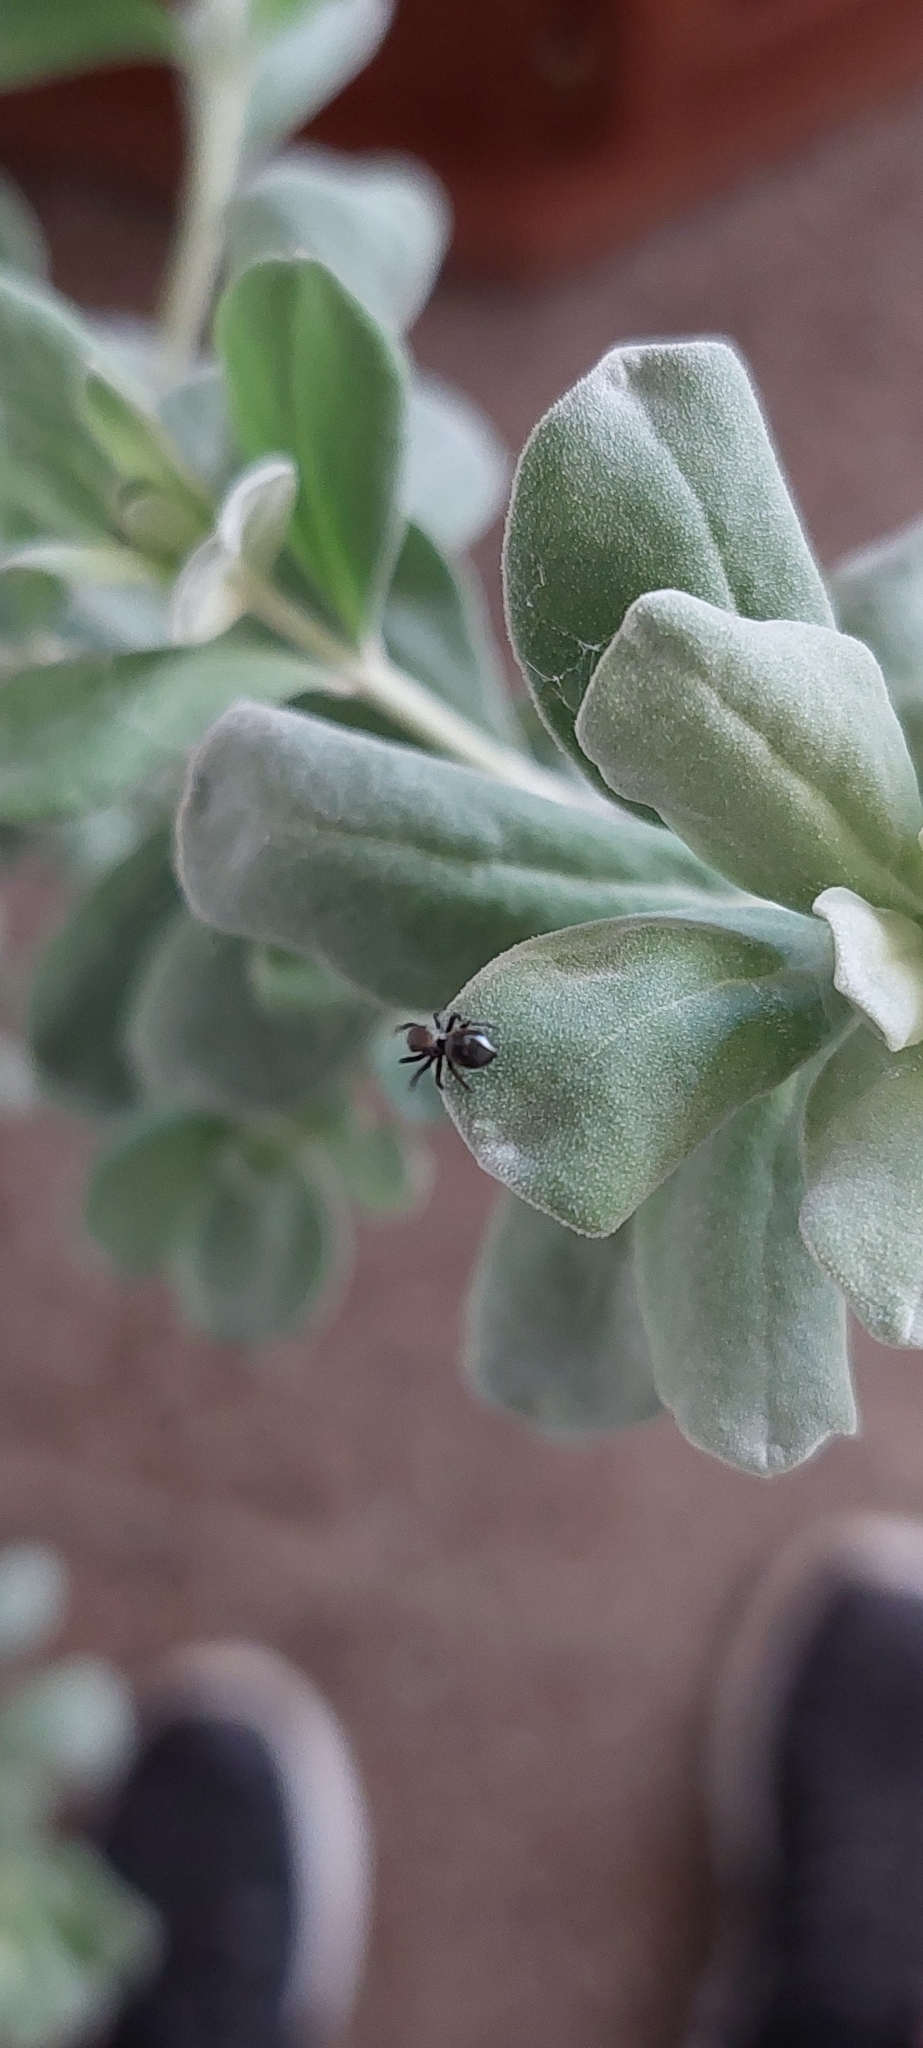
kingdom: Animalia
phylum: Arthropoda
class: Arachnida
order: Araneae
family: Salticidae
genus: Phiale
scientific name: Phiale roburifoliata
